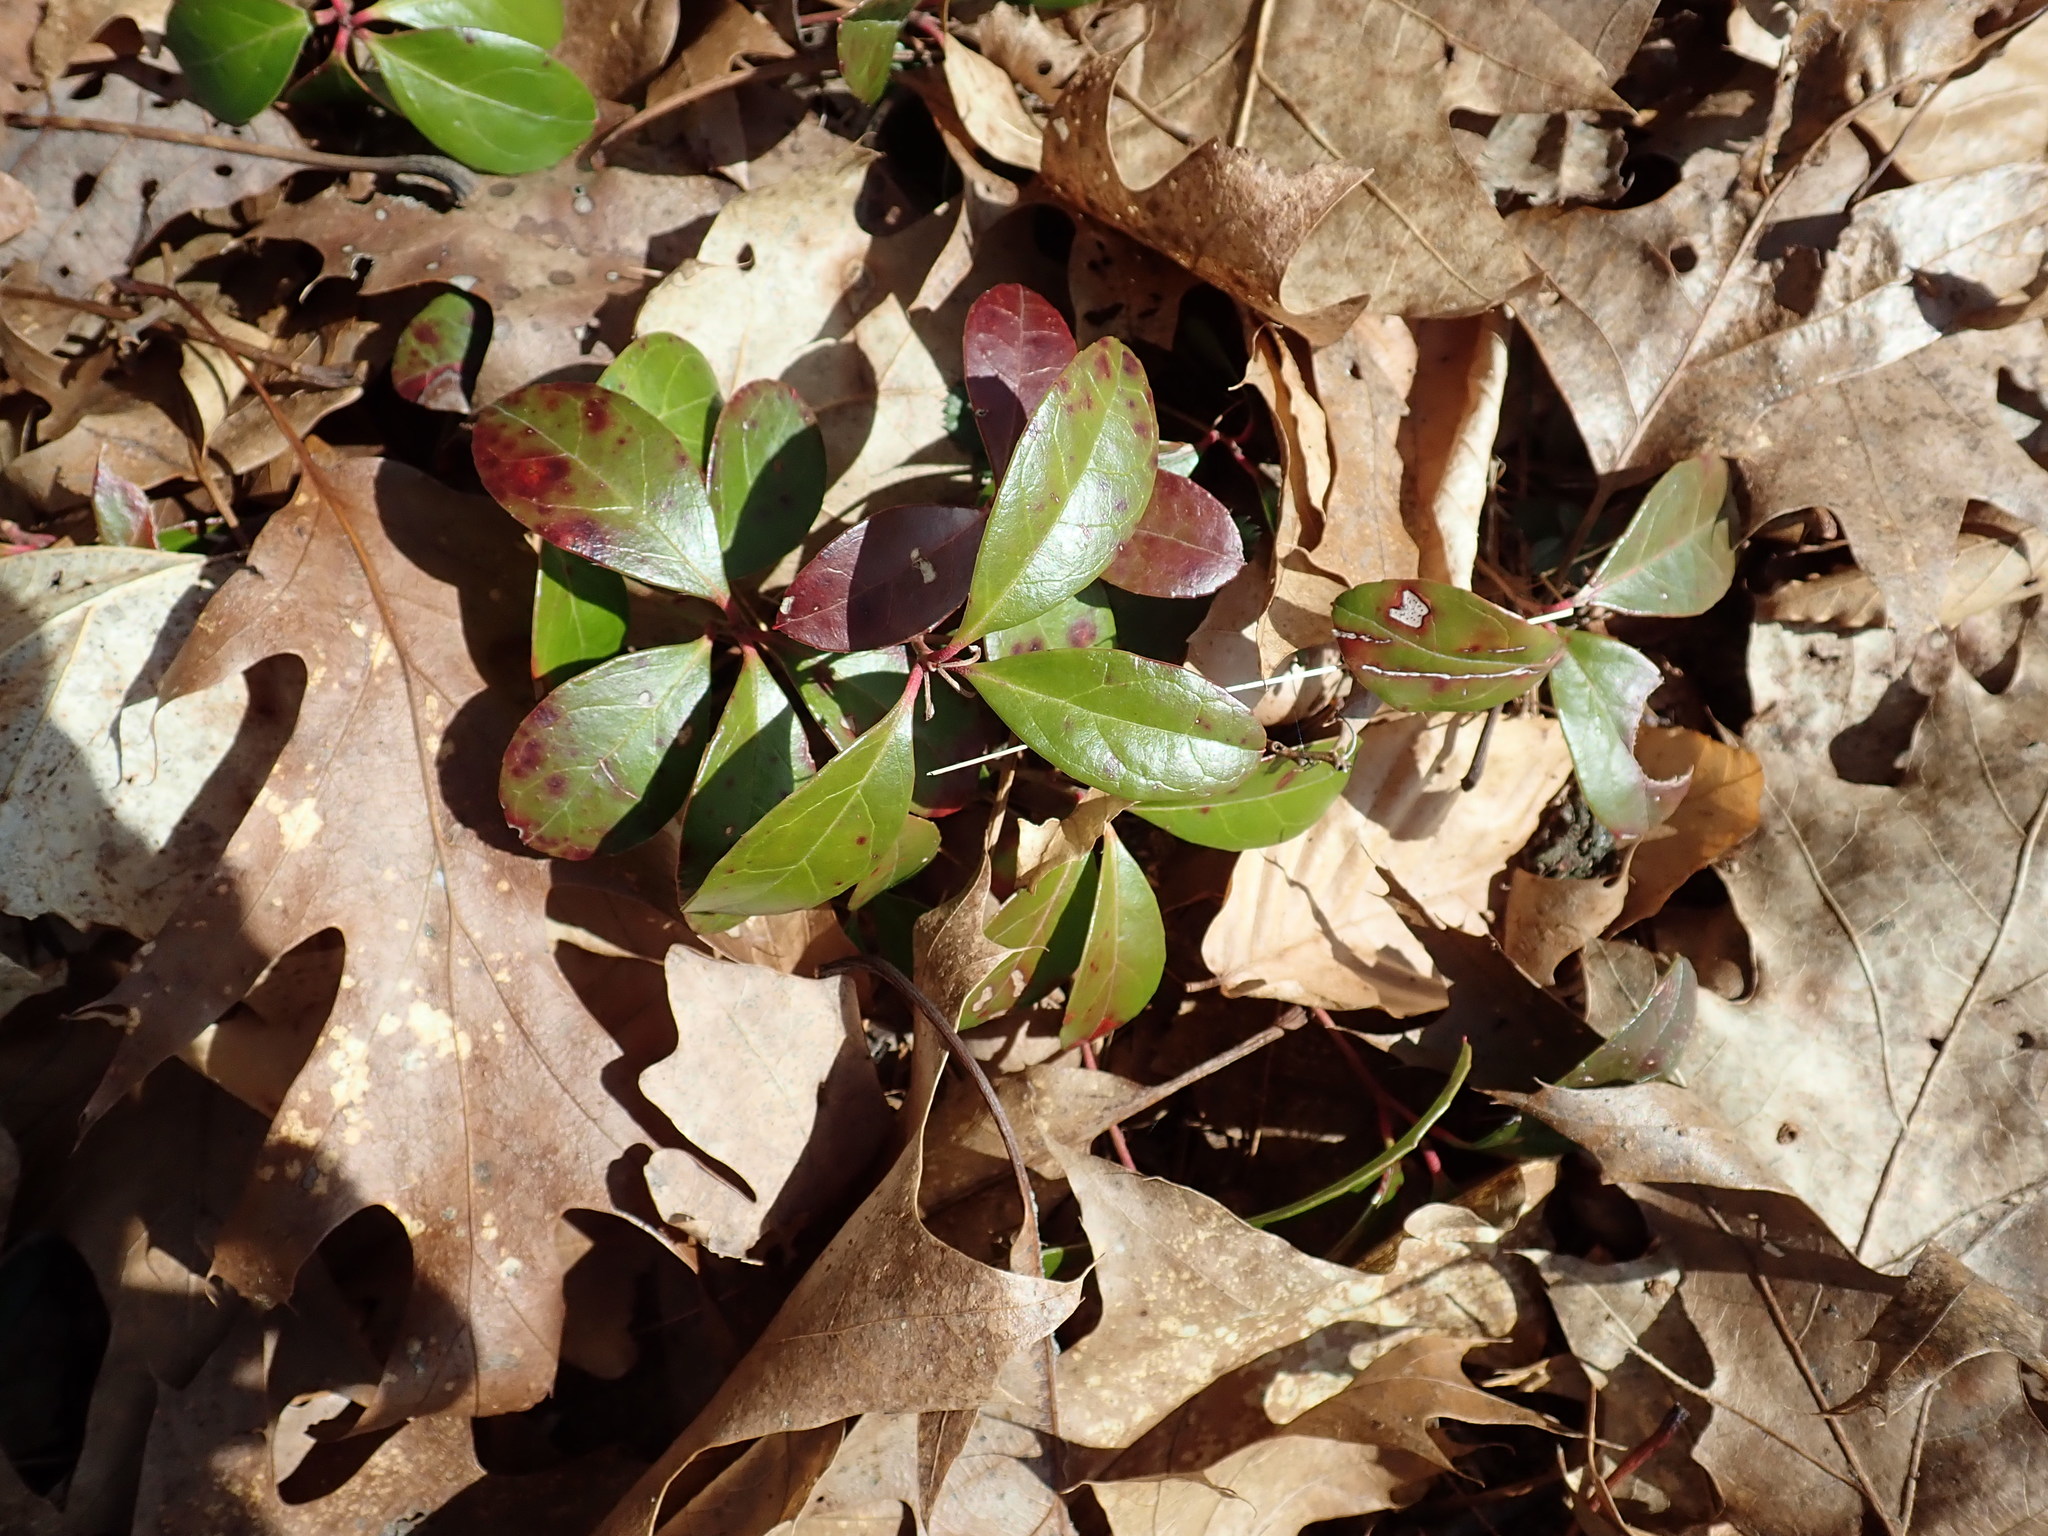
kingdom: Plantae
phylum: Tracheophyta
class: Magnoliopsida
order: Ericales
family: Ericaceae
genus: Gaultheria
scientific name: Gaultheria procumbens
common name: Checkerberry
